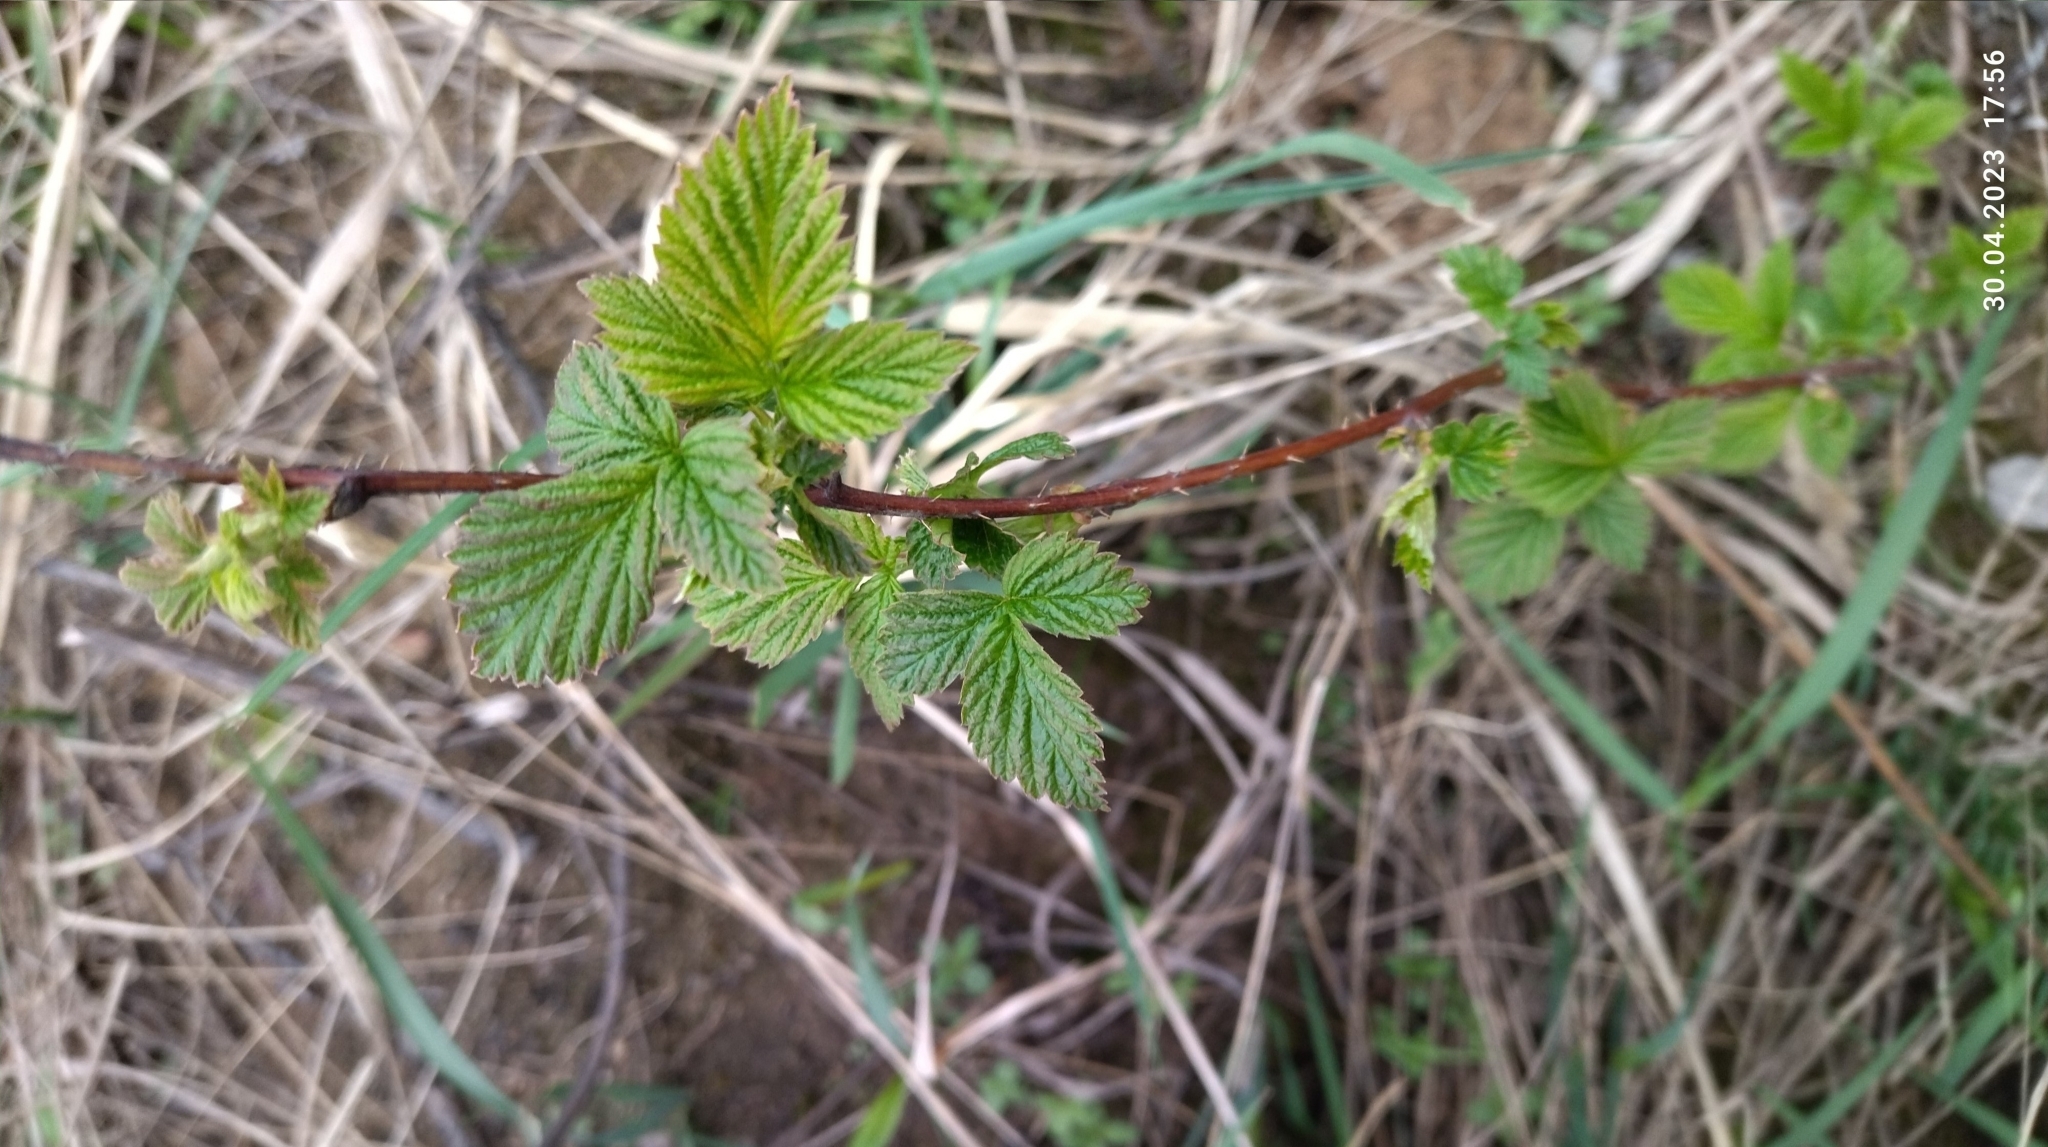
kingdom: Plantae
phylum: Tracheophyta
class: Magnoliopsida
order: Rosales
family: Rosaceae
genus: Rubus
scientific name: Rubus idaeus
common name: Raspberry
